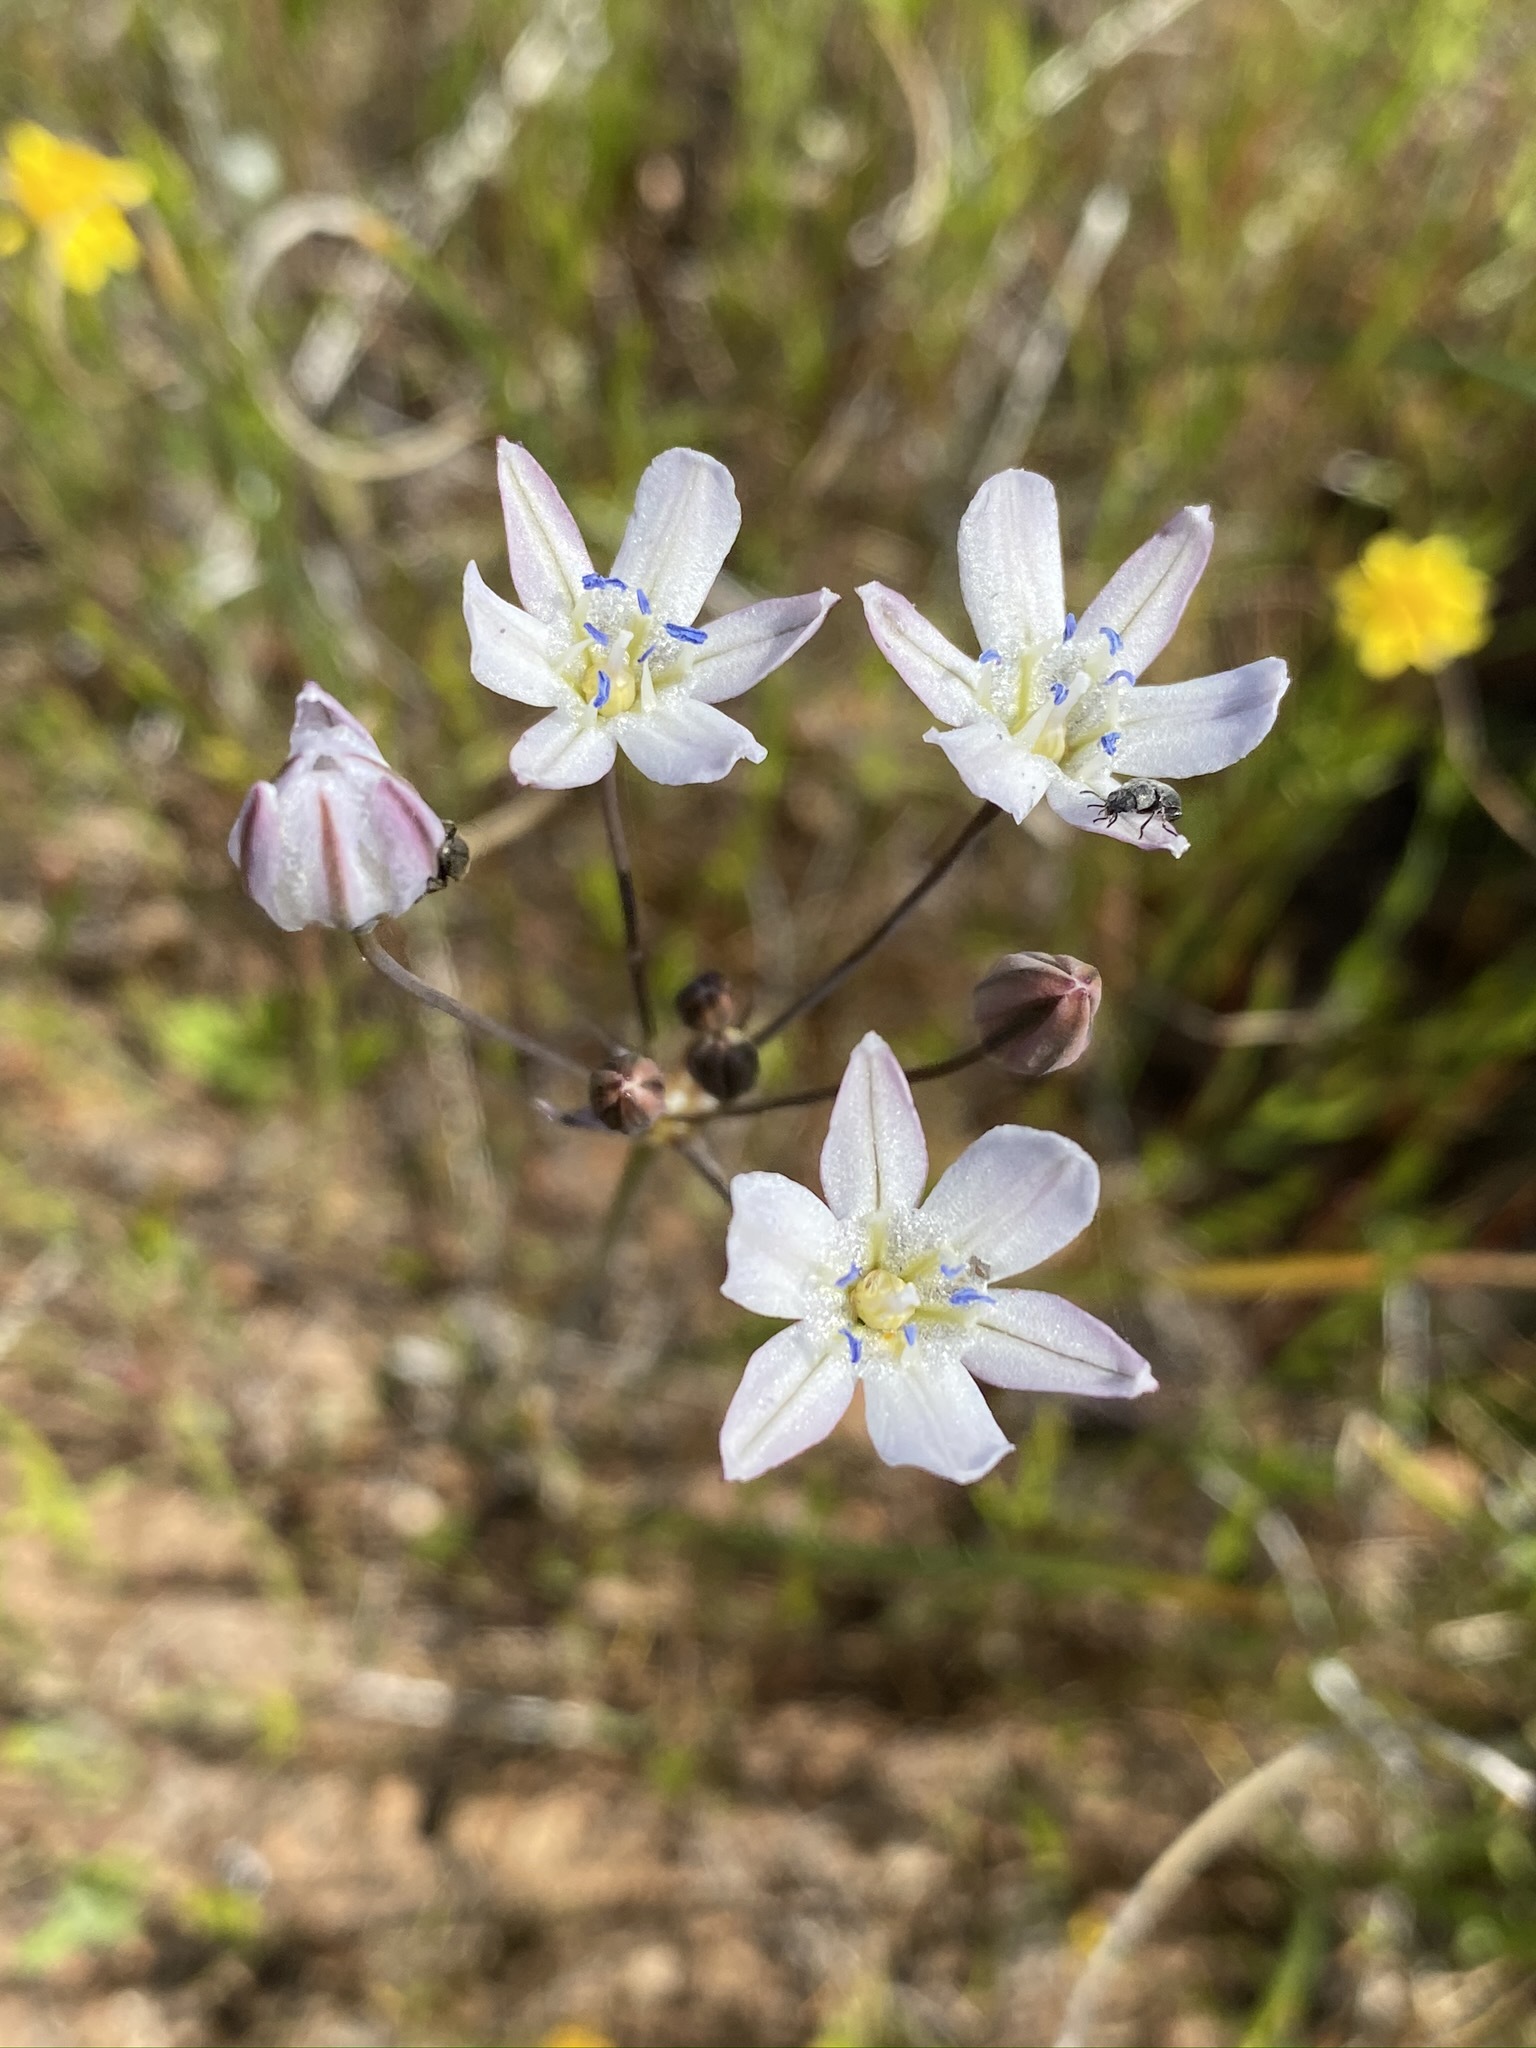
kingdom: Plantae
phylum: Tracheophyta
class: Liliopsida
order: Asparagales
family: Asparagaceae
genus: Triteleia
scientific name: Triteleia lilacina
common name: Lilac-flower wild hyacinth
